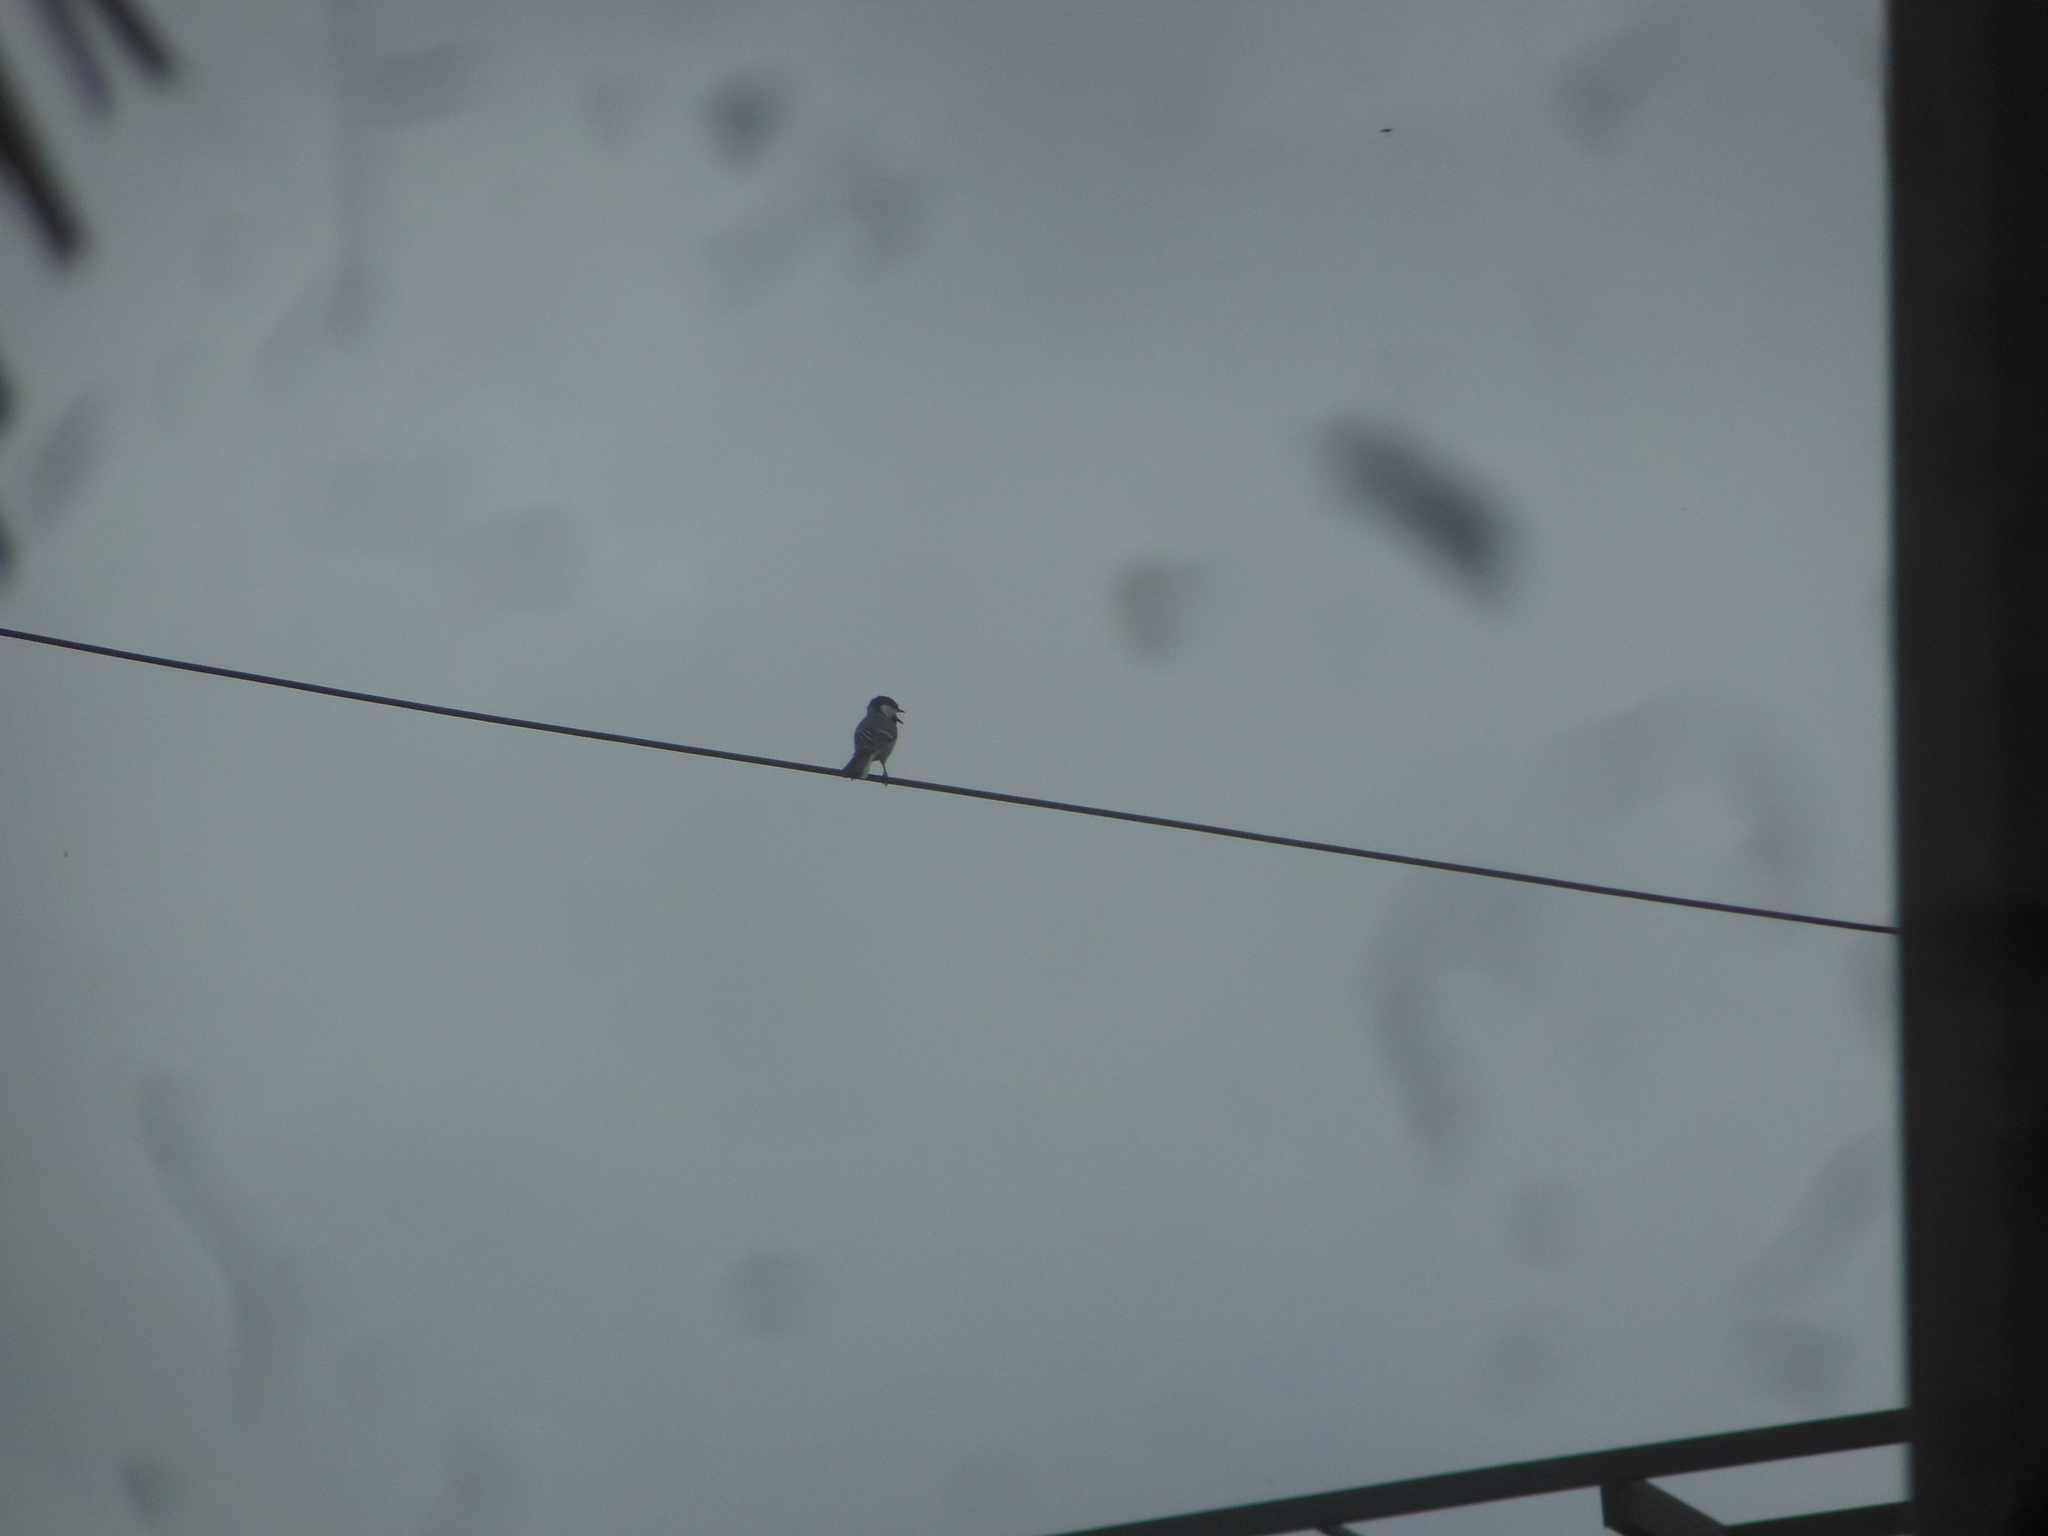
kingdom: Animalia
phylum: Chordata
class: Aves
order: Passeriformes
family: Paridae
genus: Parus
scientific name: Parus cinereus
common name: Cinereous tit
